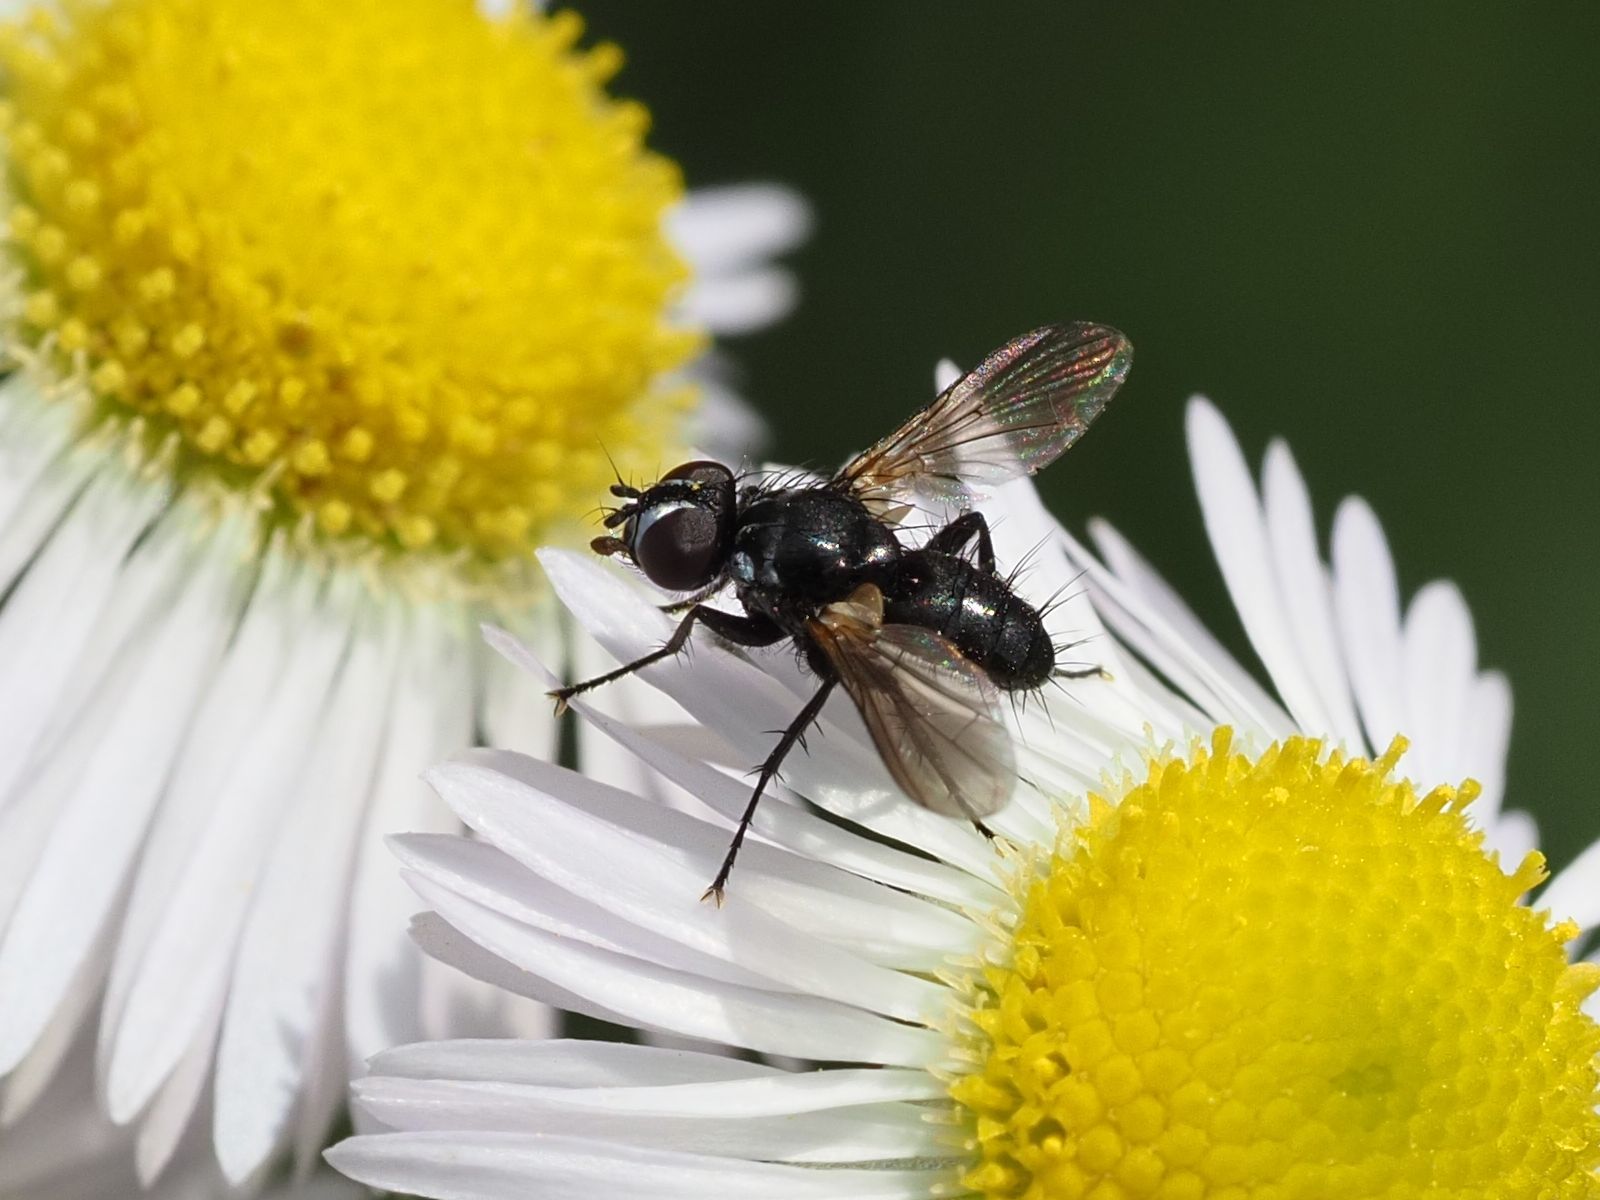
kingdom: Animalia
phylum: Arthropoda
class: Insecta
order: Diptera
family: Tachinidae
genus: Phania
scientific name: Phania funesta
